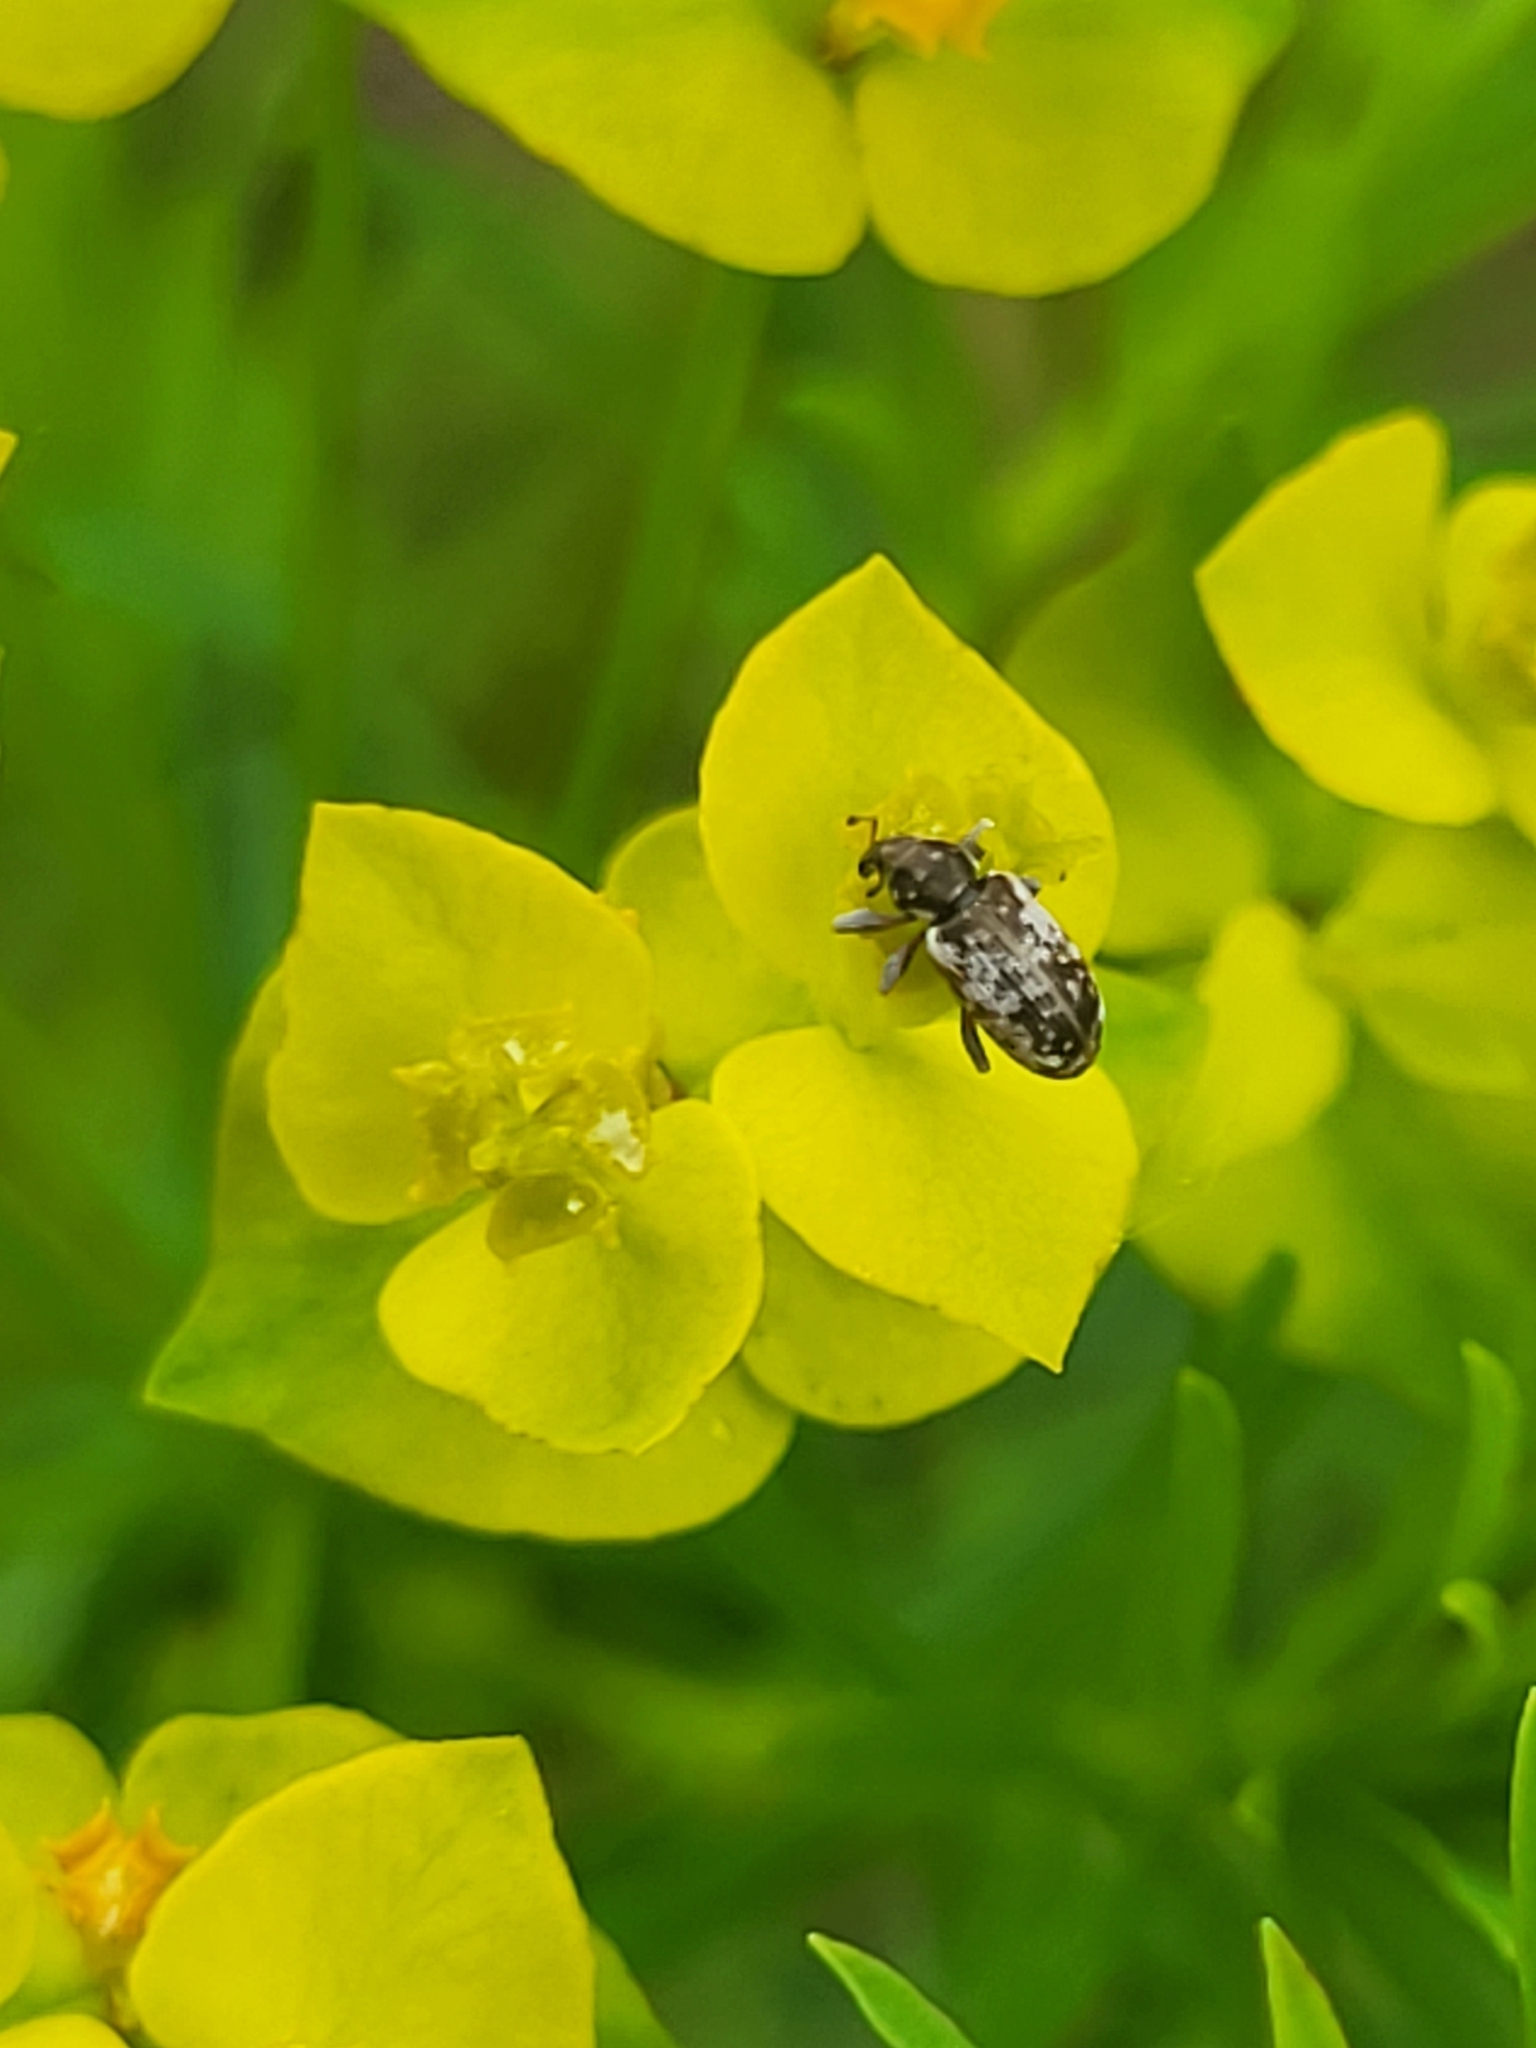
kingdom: Animalia
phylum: Arthropoda
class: Insecta
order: Coleoptera
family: Curculionidae
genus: Dorytomus
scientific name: Dorytomus ictor
